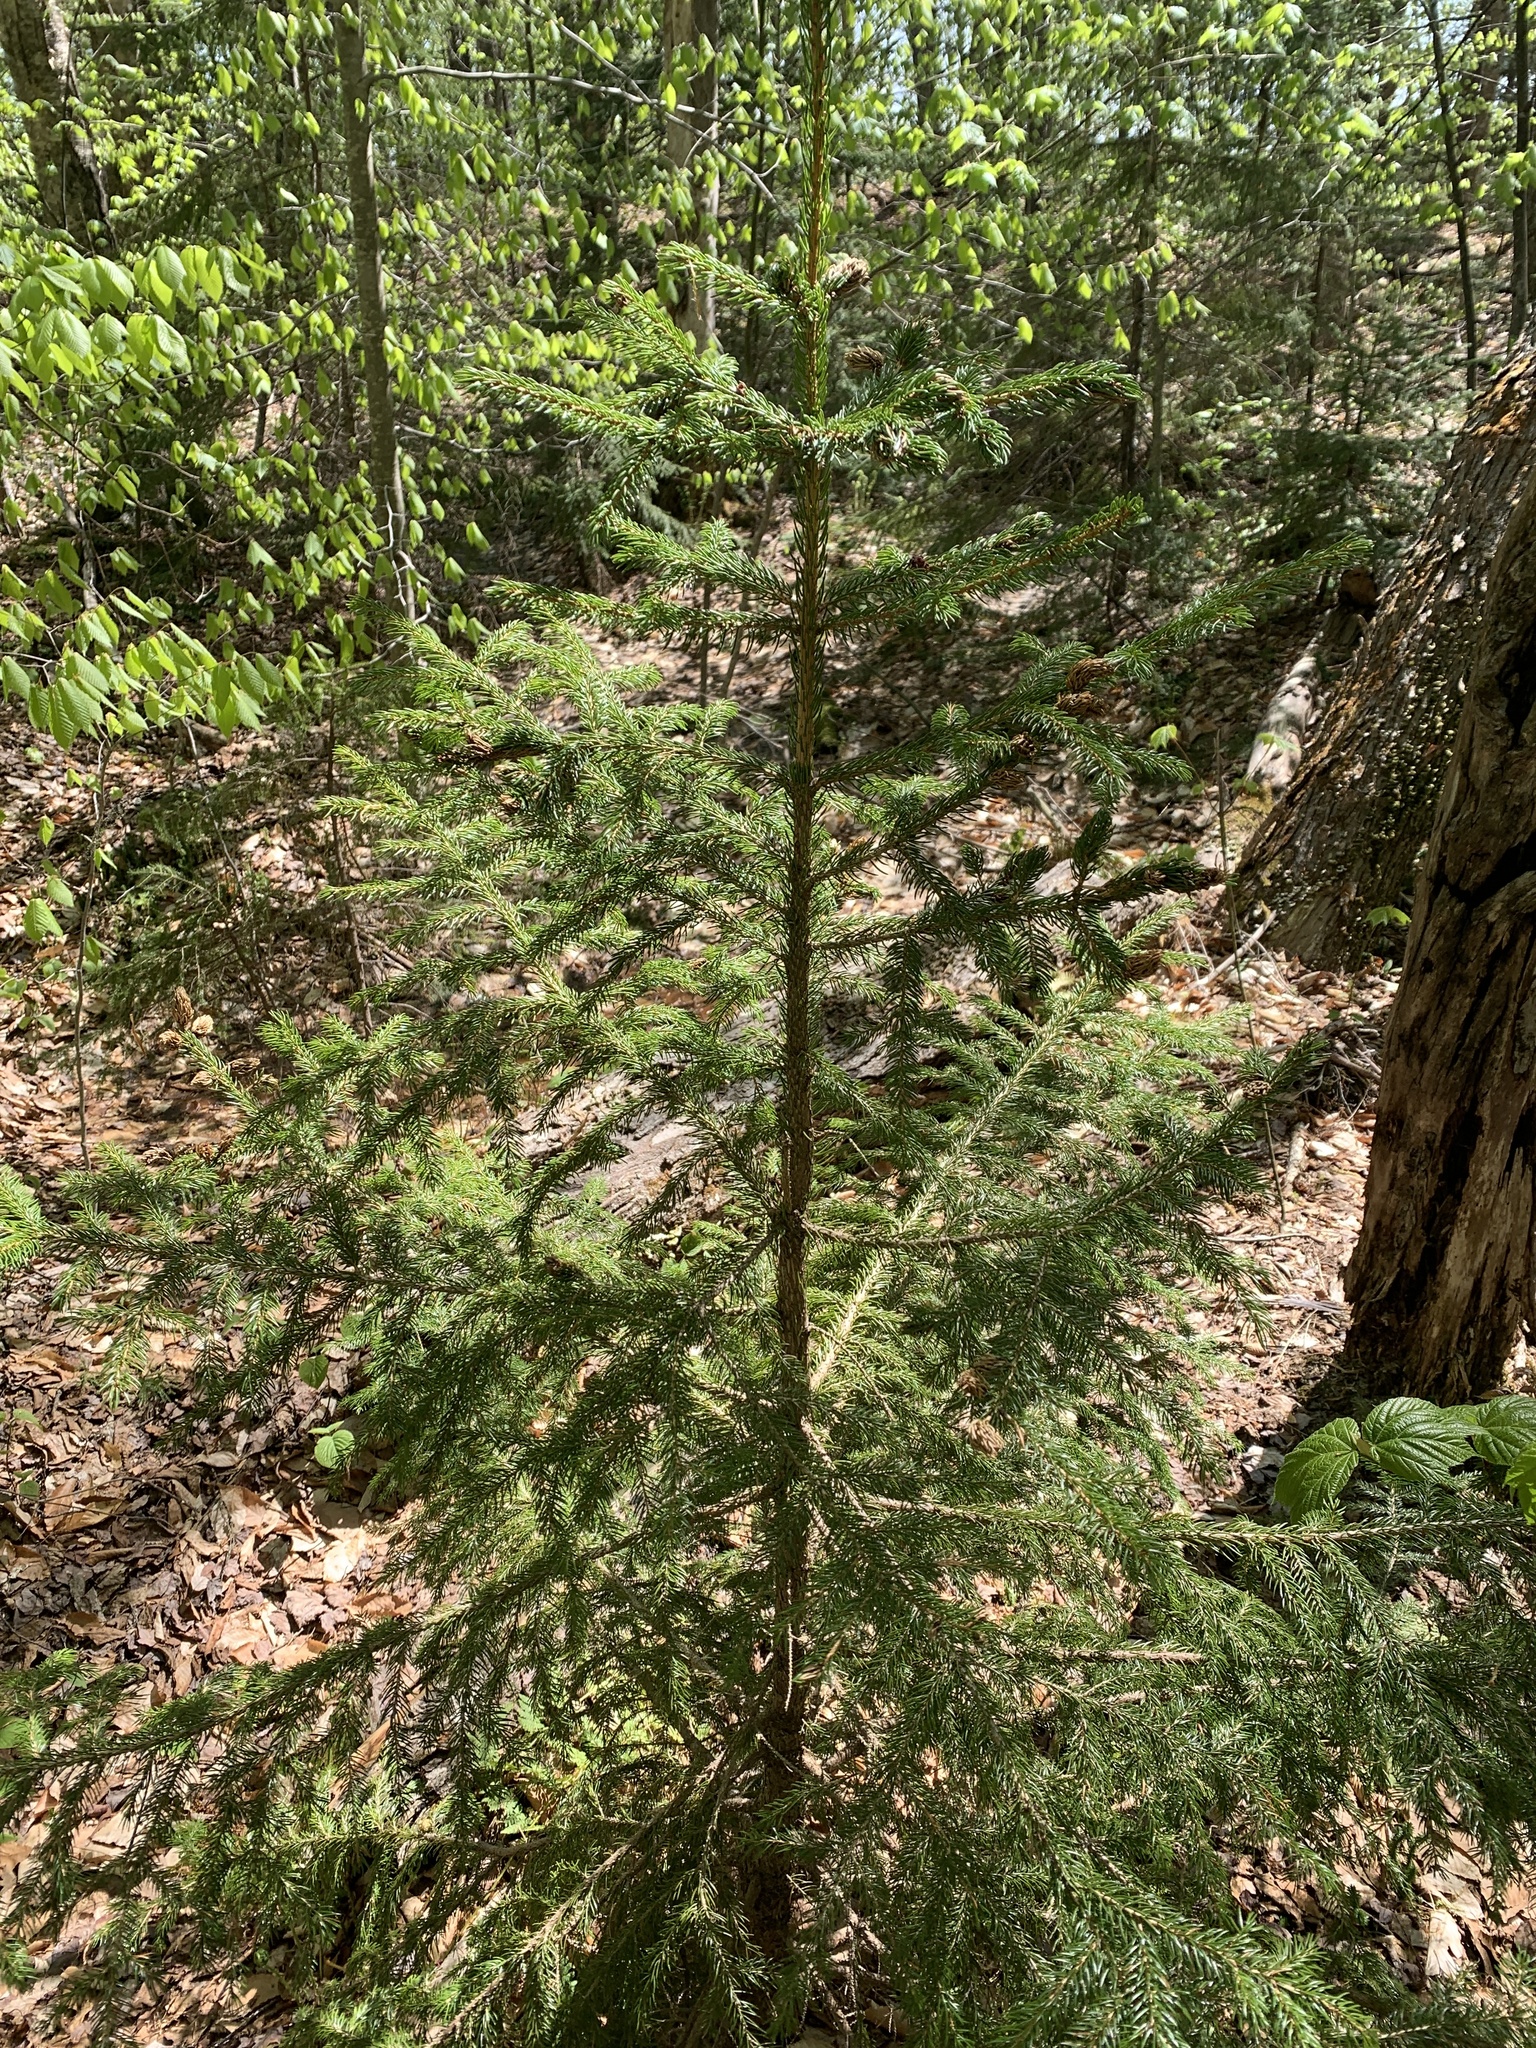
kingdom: Plantae
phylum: Tracheophyta
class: Pinopsida
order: Pinales
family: Pinaceae
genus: Picea
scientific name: Picea rubens
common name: Red spruce
